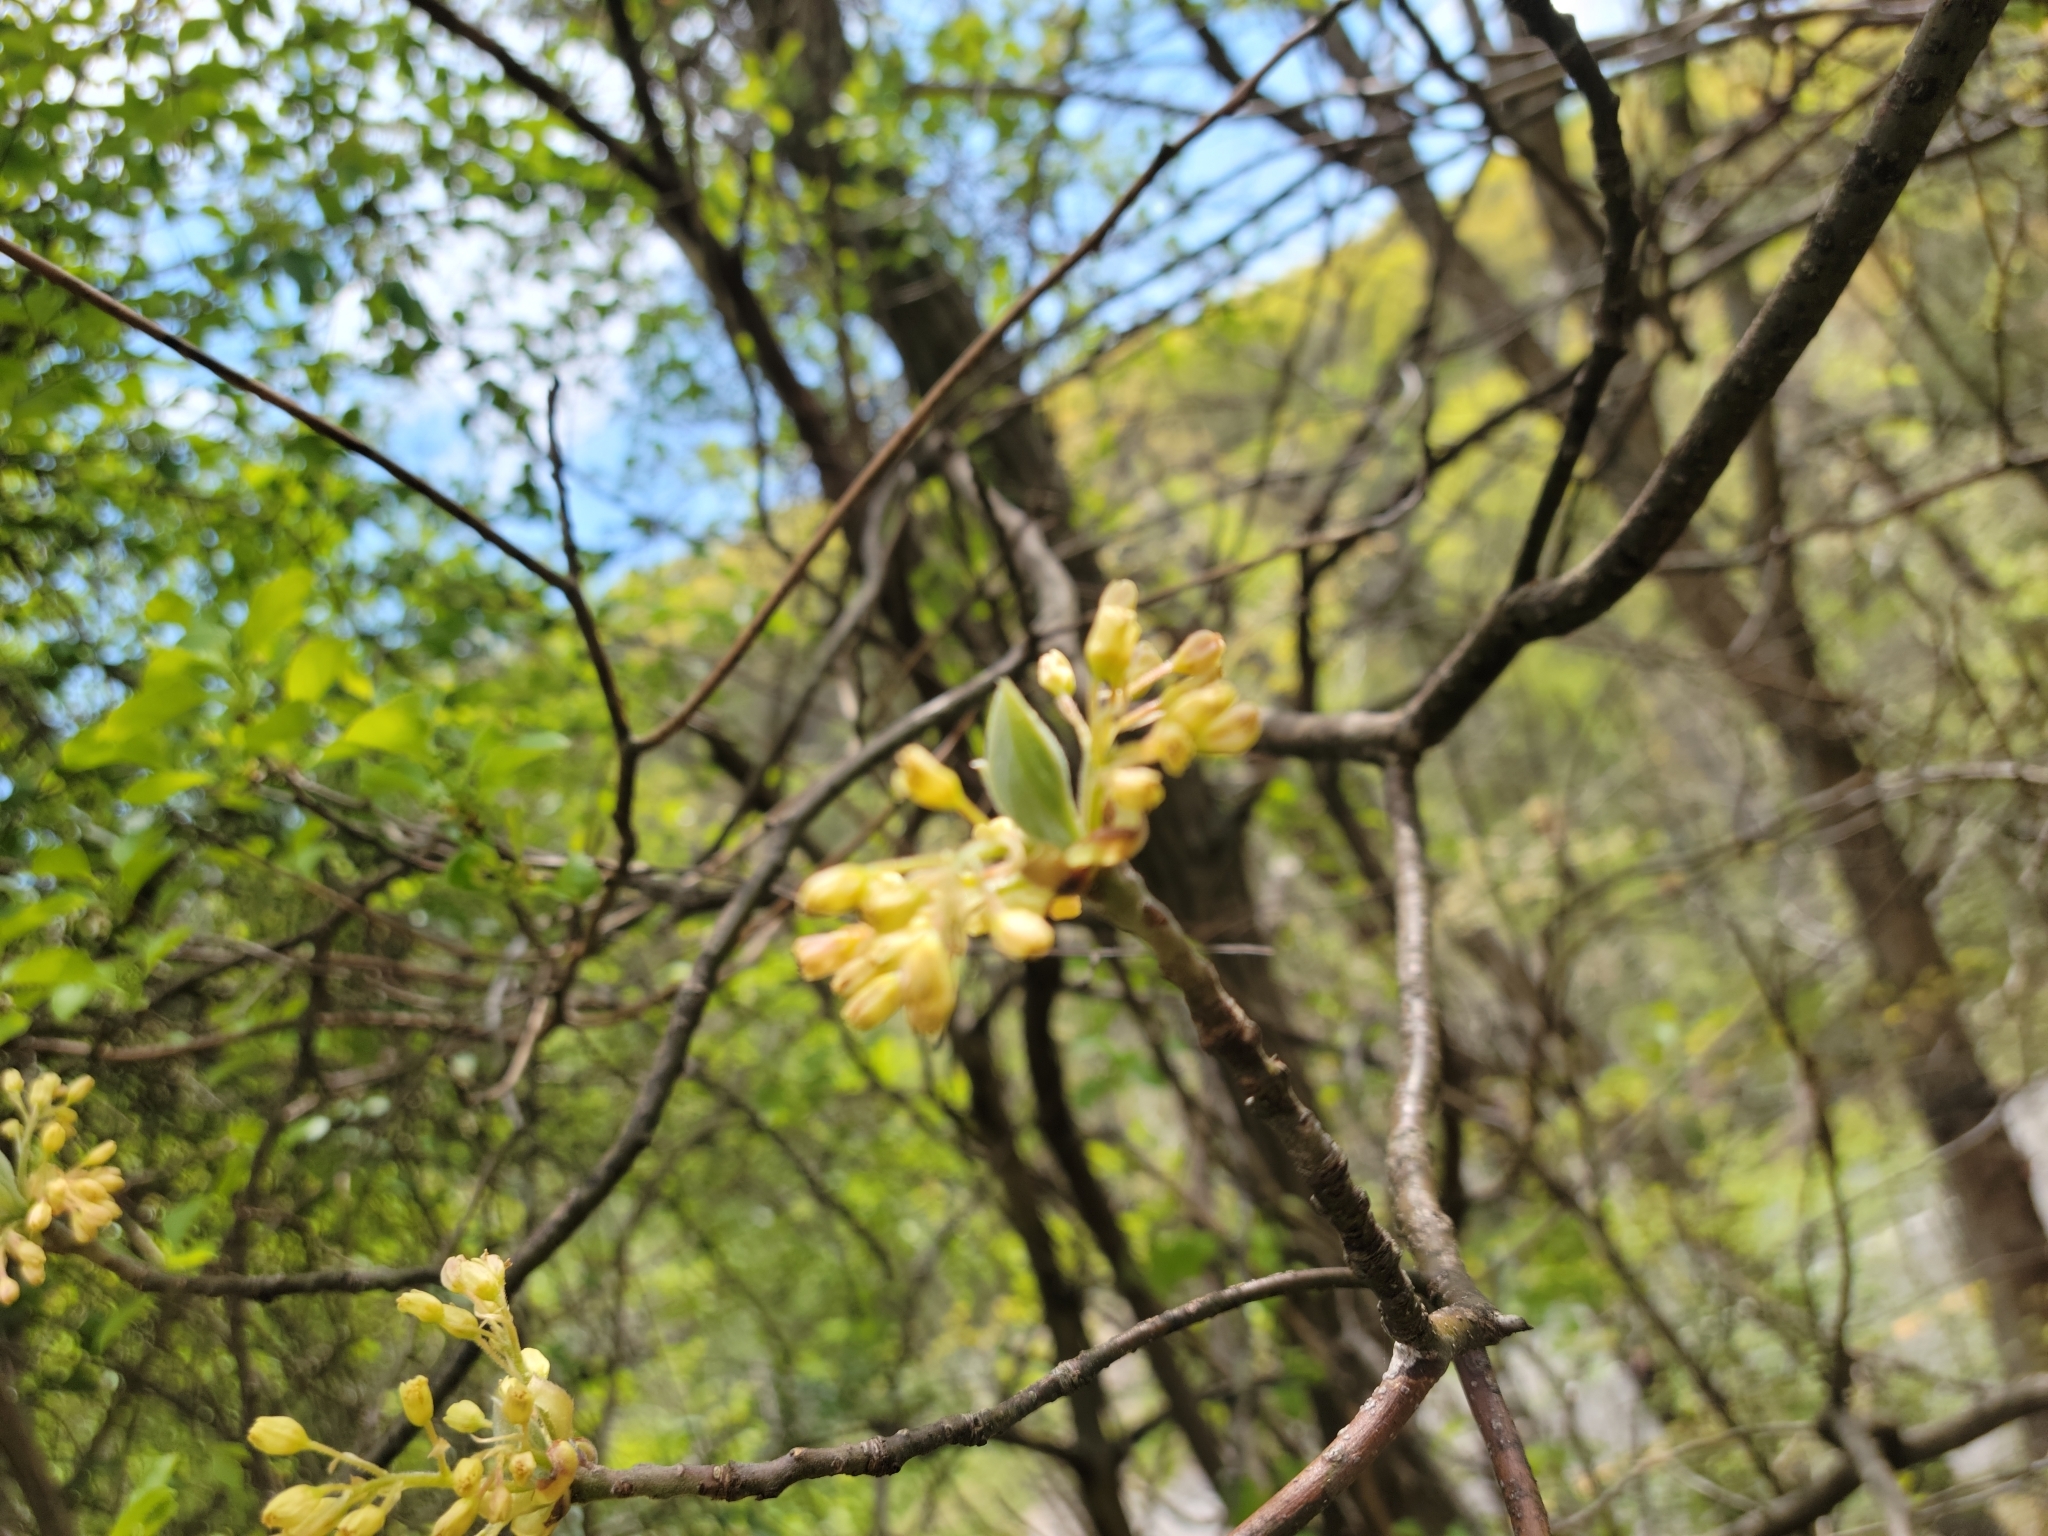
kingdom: Plantae
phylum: Tracheophyta
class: Magnoliopsida
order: Laurales
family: Lauraceae
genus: Sassafras
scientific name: Sassafras albidum
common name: Sassafras
